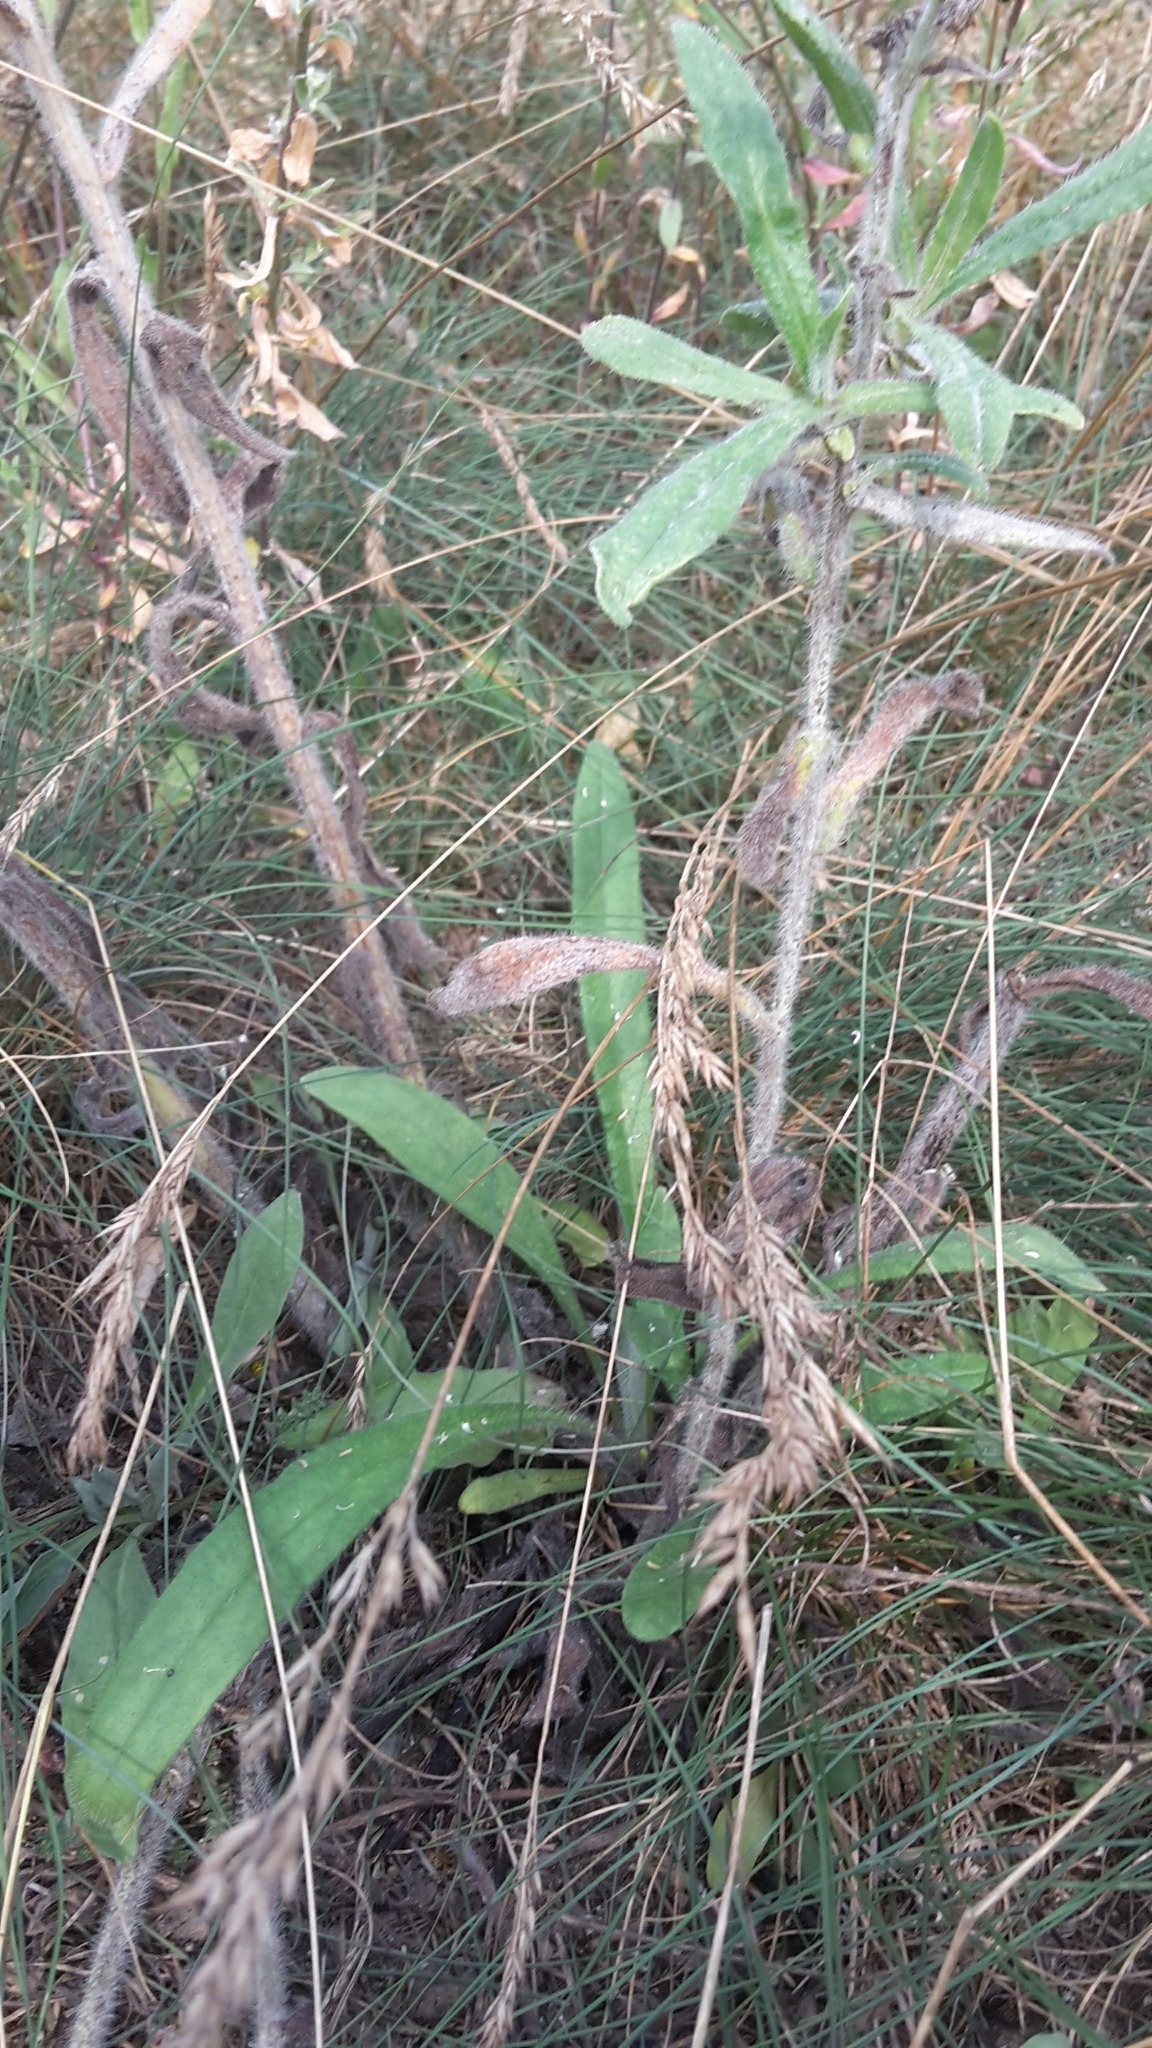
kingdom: Plantae
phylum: Tracheophyta
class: Magnoliopsida
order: Boraginales
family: Boraginaceae
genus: Anchusa
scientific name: Anchusa officinalis
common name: Alkanet
